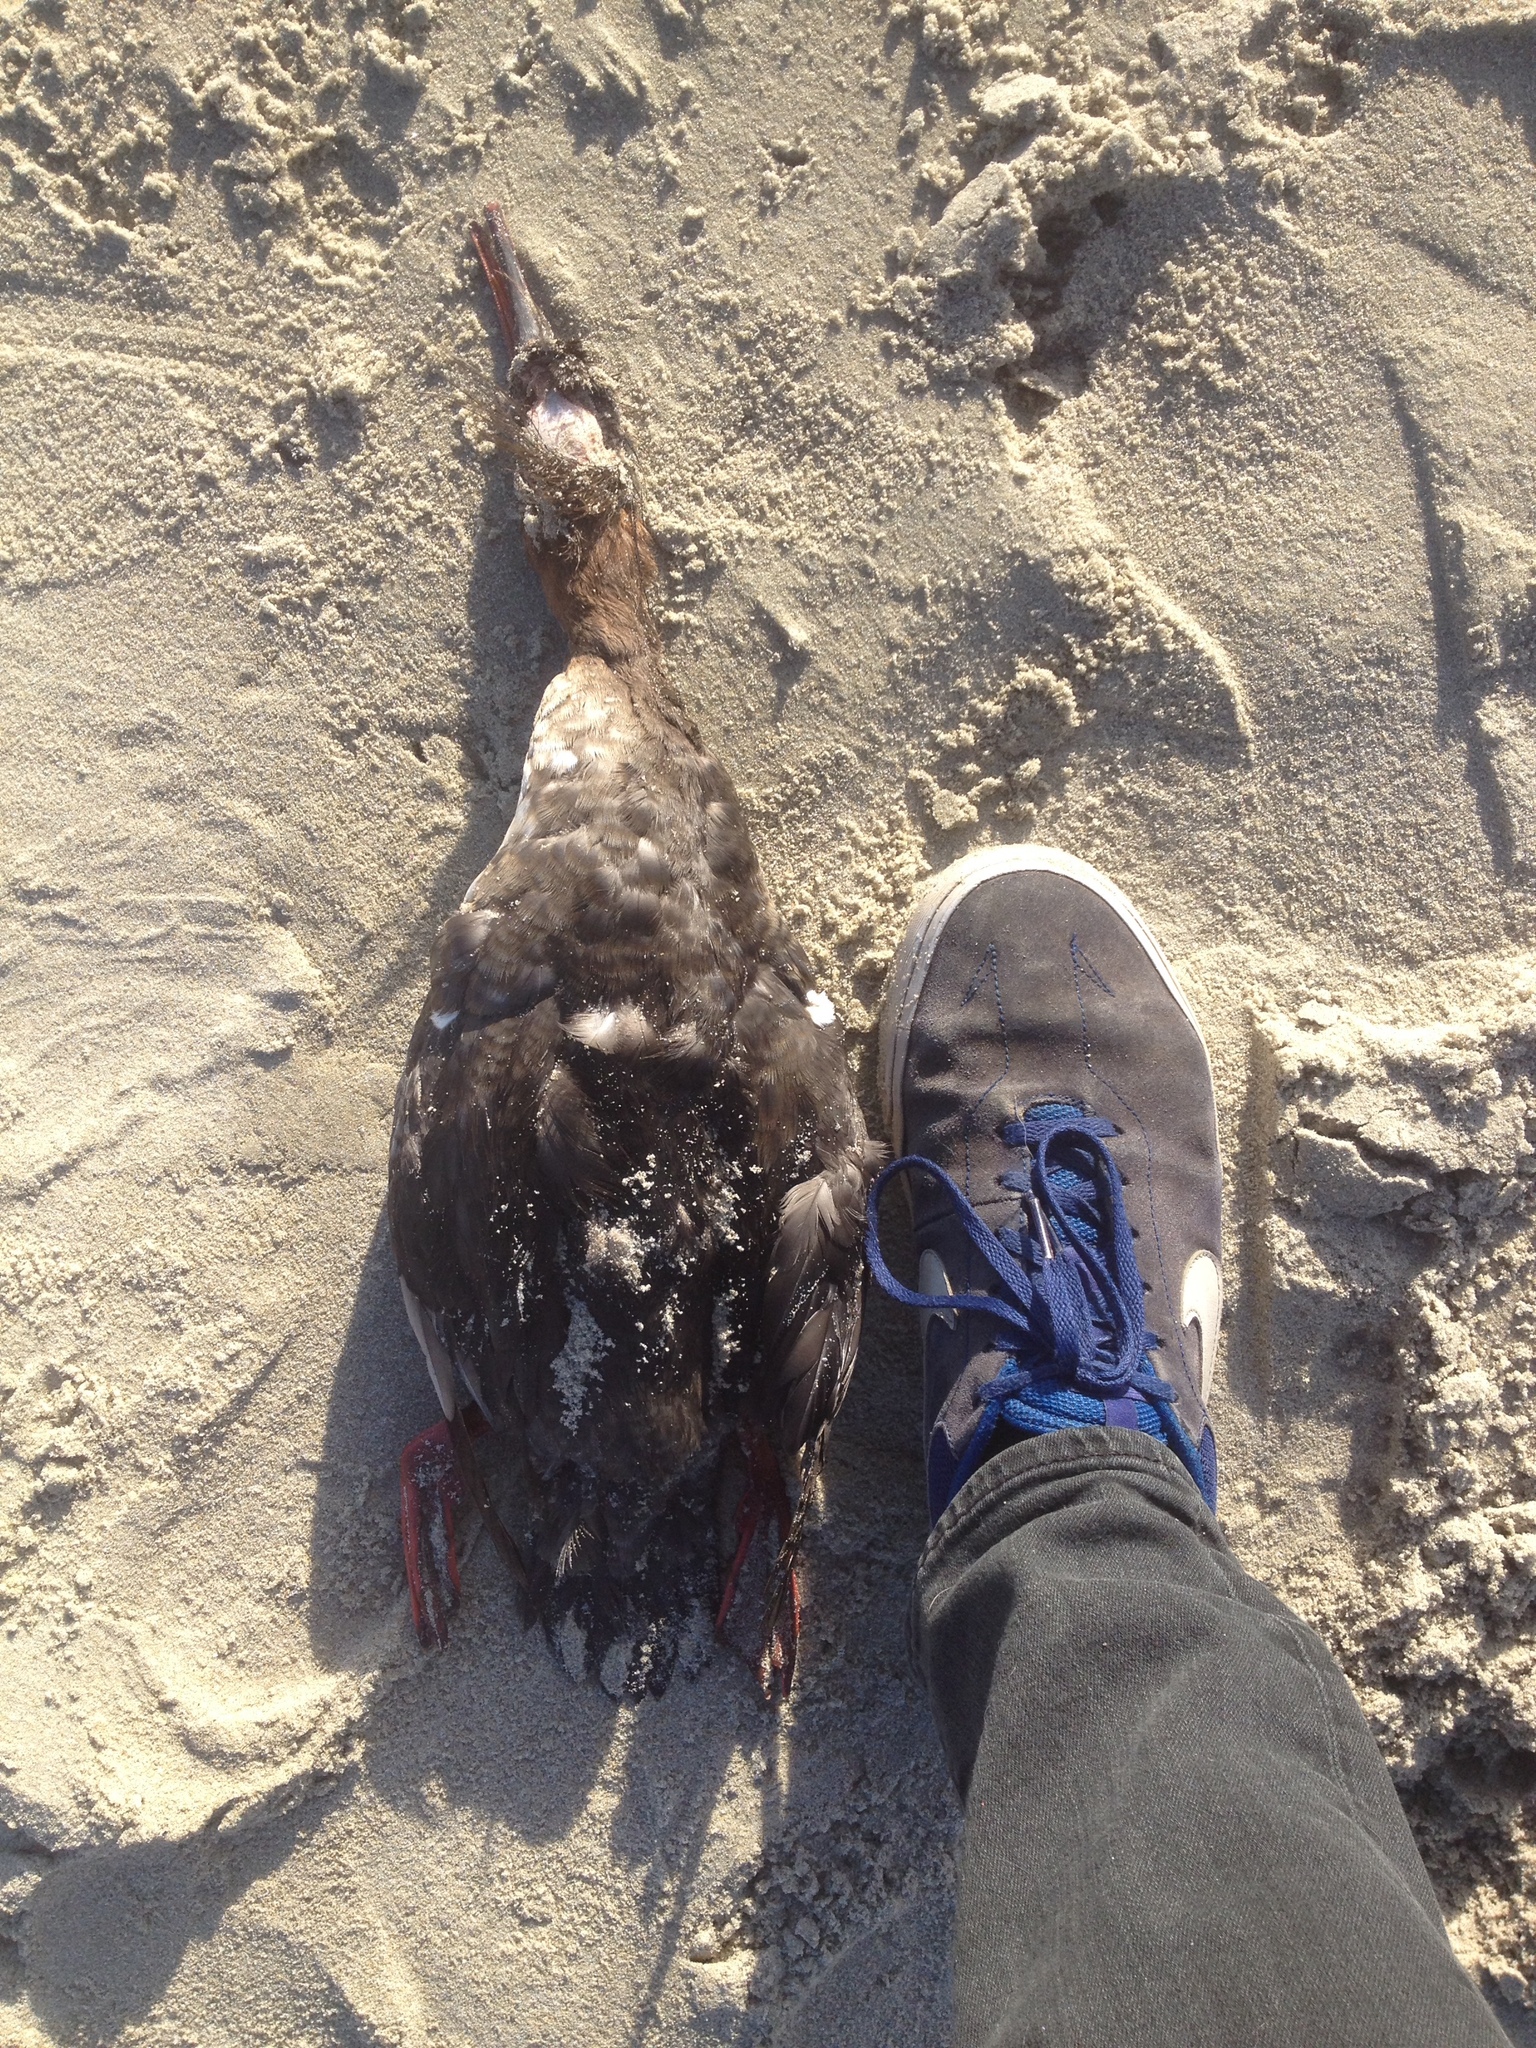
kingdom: Animalia
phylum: Chordata
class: Aves
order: Anseriformes
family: Anatidae
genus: Mergus
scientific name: Mergus serrator
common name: Red-breasted merganser
